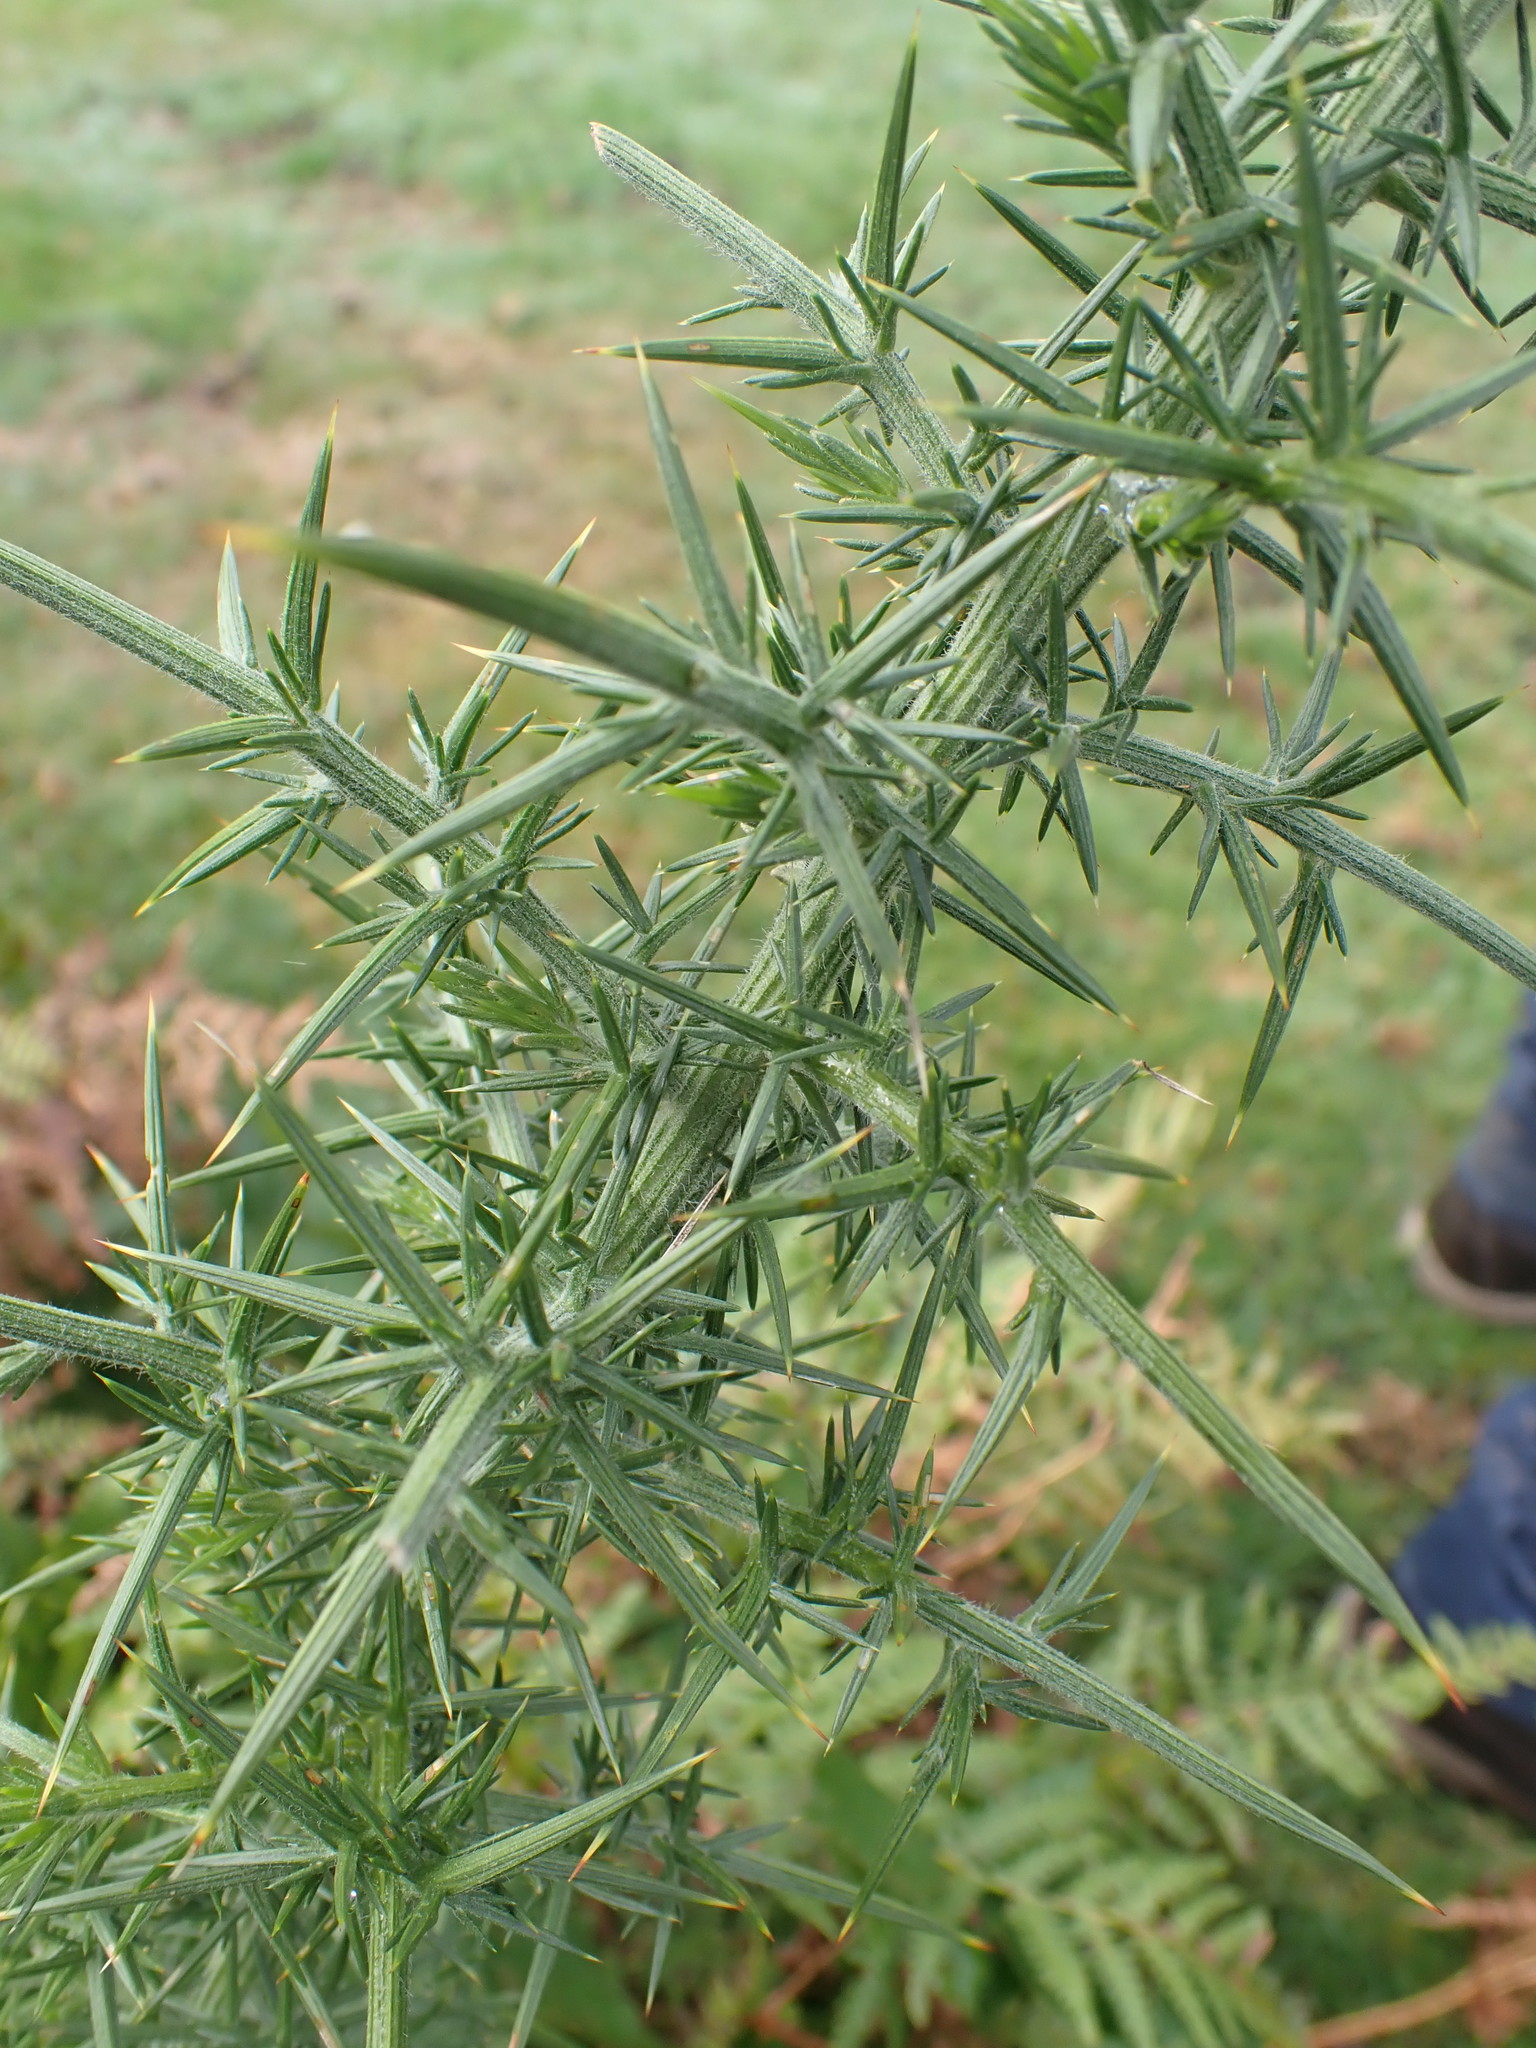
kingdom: Plantae
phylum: Tracheophyta
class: Magnoliopsida
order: Fabales
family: Fabaceae
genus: Ulex
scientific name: Ulex europaeus
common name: Common gorse
